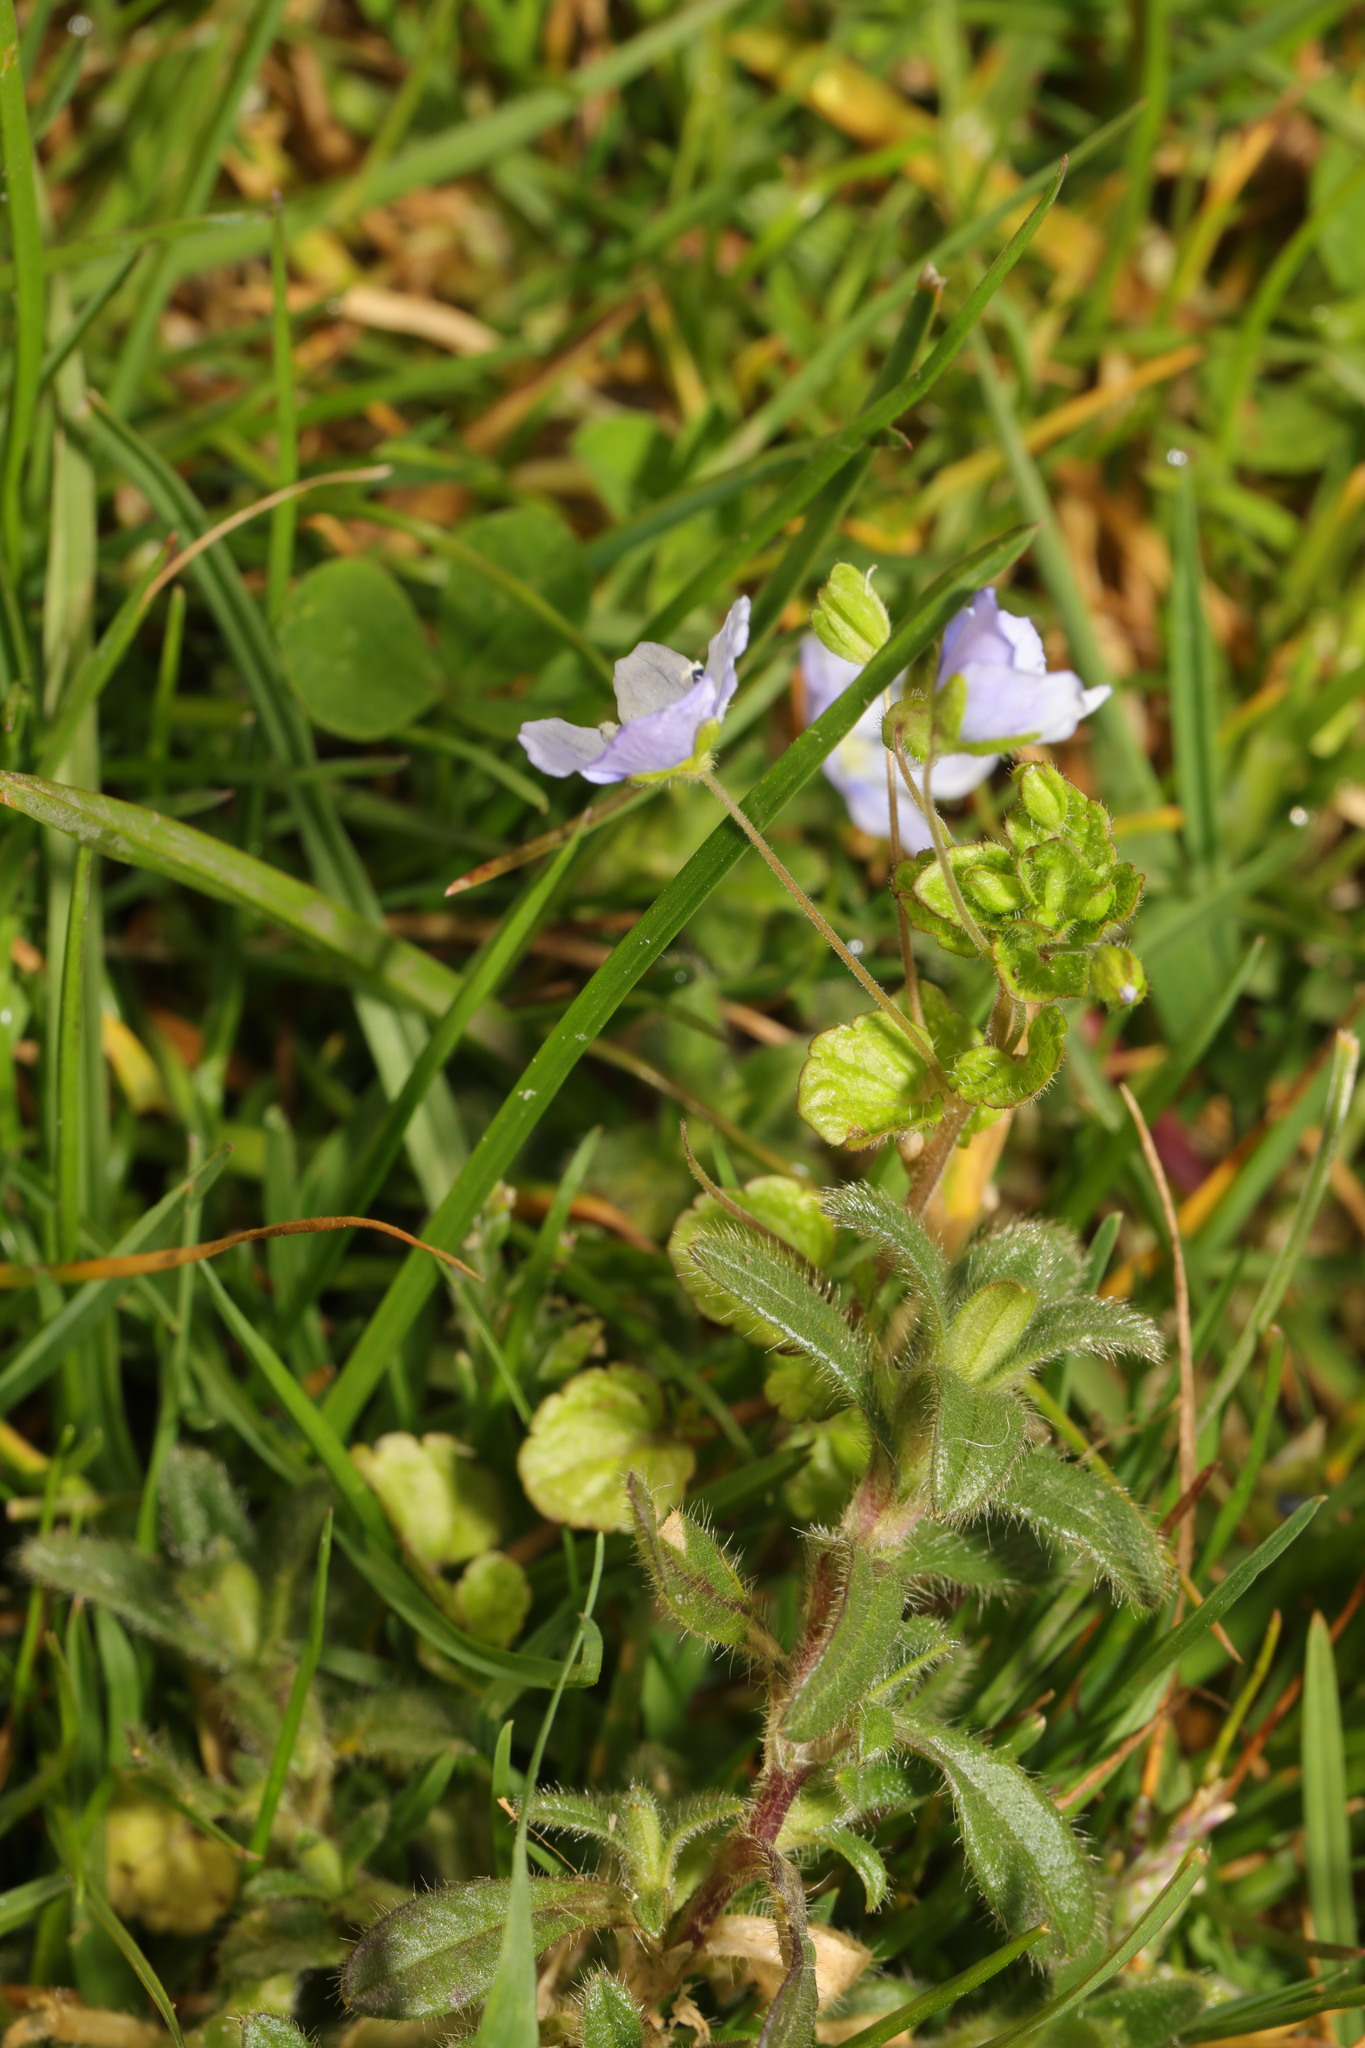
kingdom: Plantae
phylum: Tracheophyta
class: Magnoliopsida
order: Lamiales
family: Plantaginaceae
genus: Veronica
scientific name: Veronica filiformis
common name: Slender speedwell
